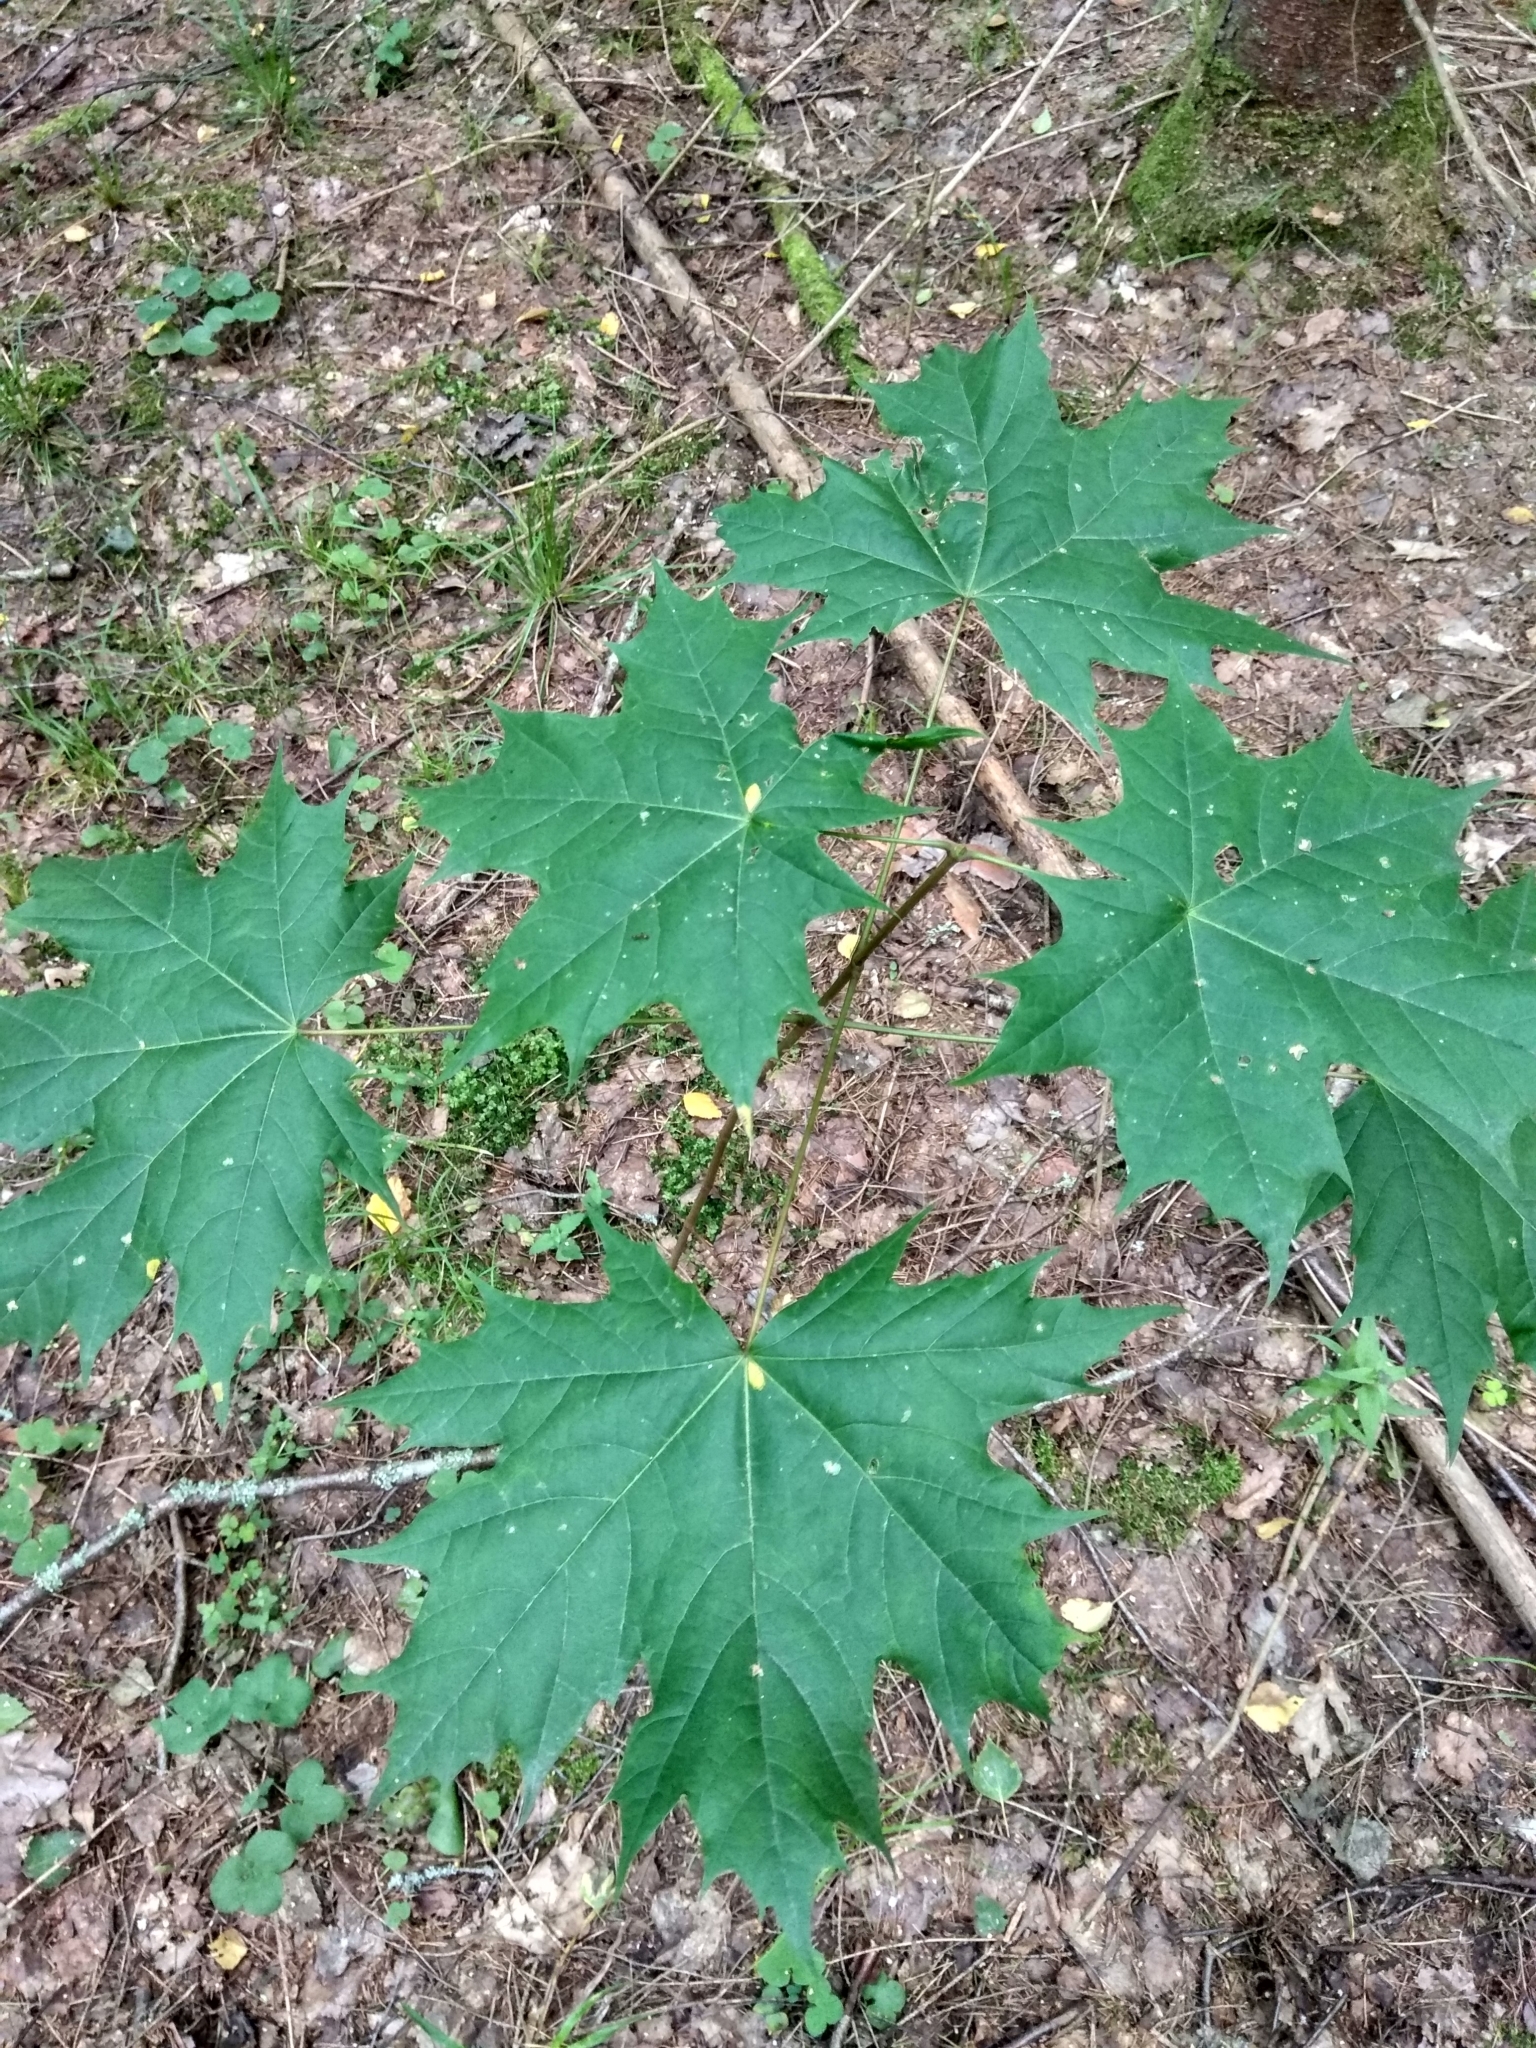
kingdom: Plantae
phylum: Tracheophyta
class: Magnoliopsida
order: Sapindales
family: Sapindaceae
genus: Acer
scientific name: Acer platanoides
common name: Norway maple
